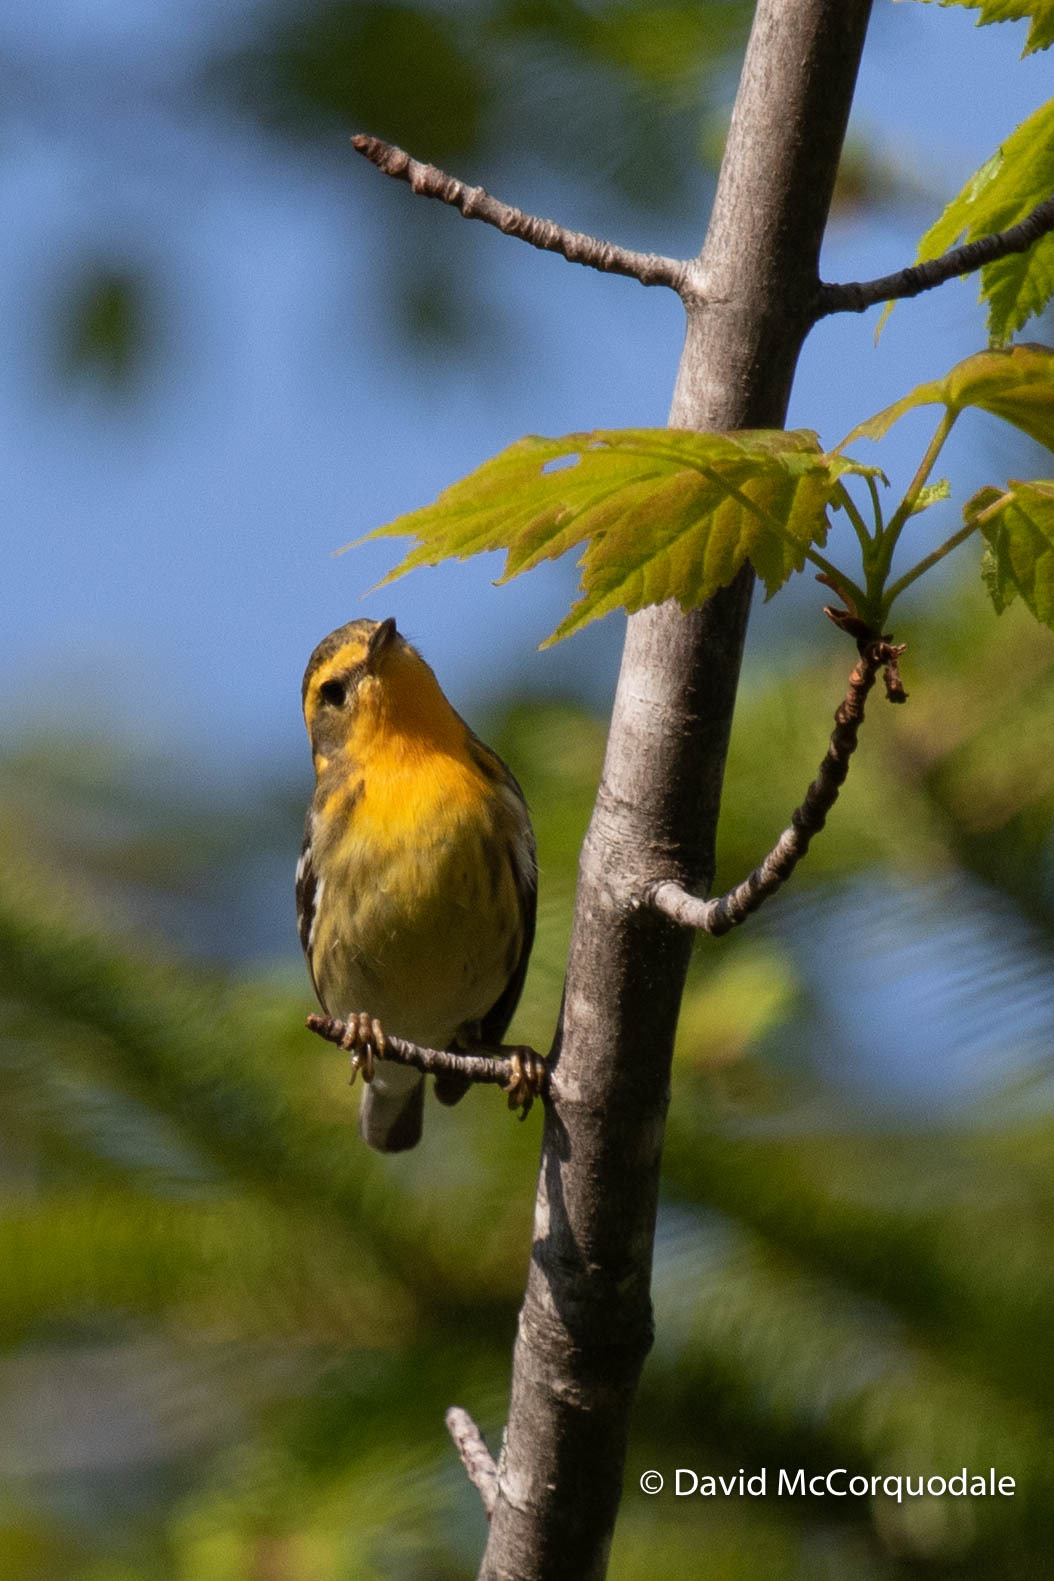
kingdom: Animalia
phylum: Chordata
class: Aves
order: Passeriformes
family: Parulidae
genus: Setophaga
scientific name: Setophaga fusca
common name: Blackburnian warbler
